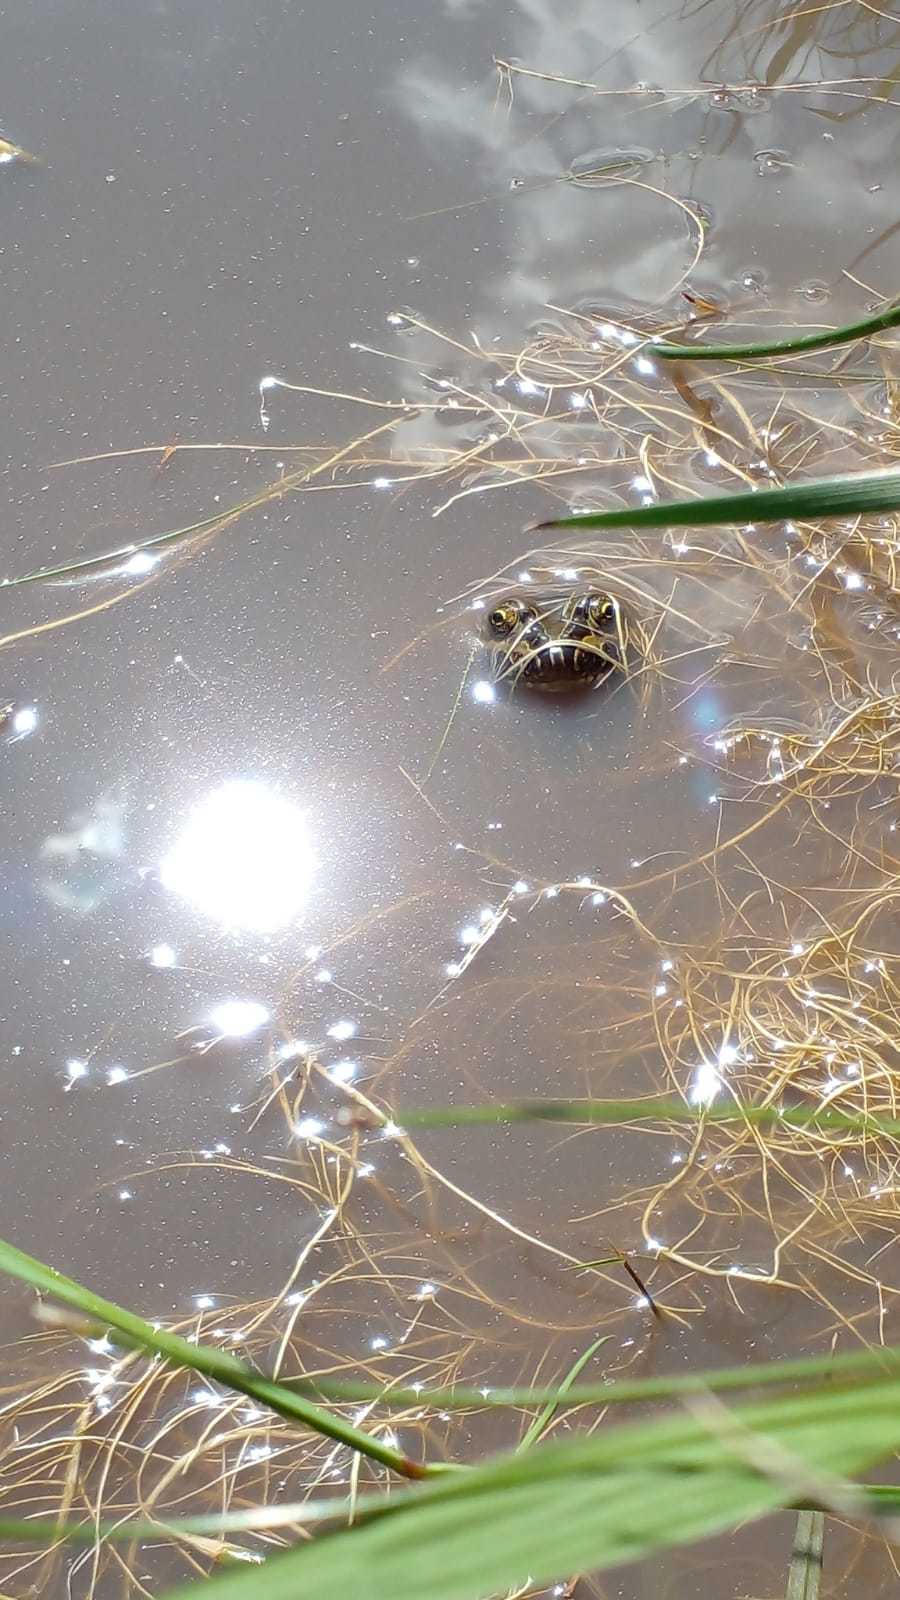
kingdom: Animalia
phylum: Chordata
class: Amphibia
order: Anura
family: Leptodactylidae
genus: Leptodactylus
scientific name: Leptodactylus luctator
